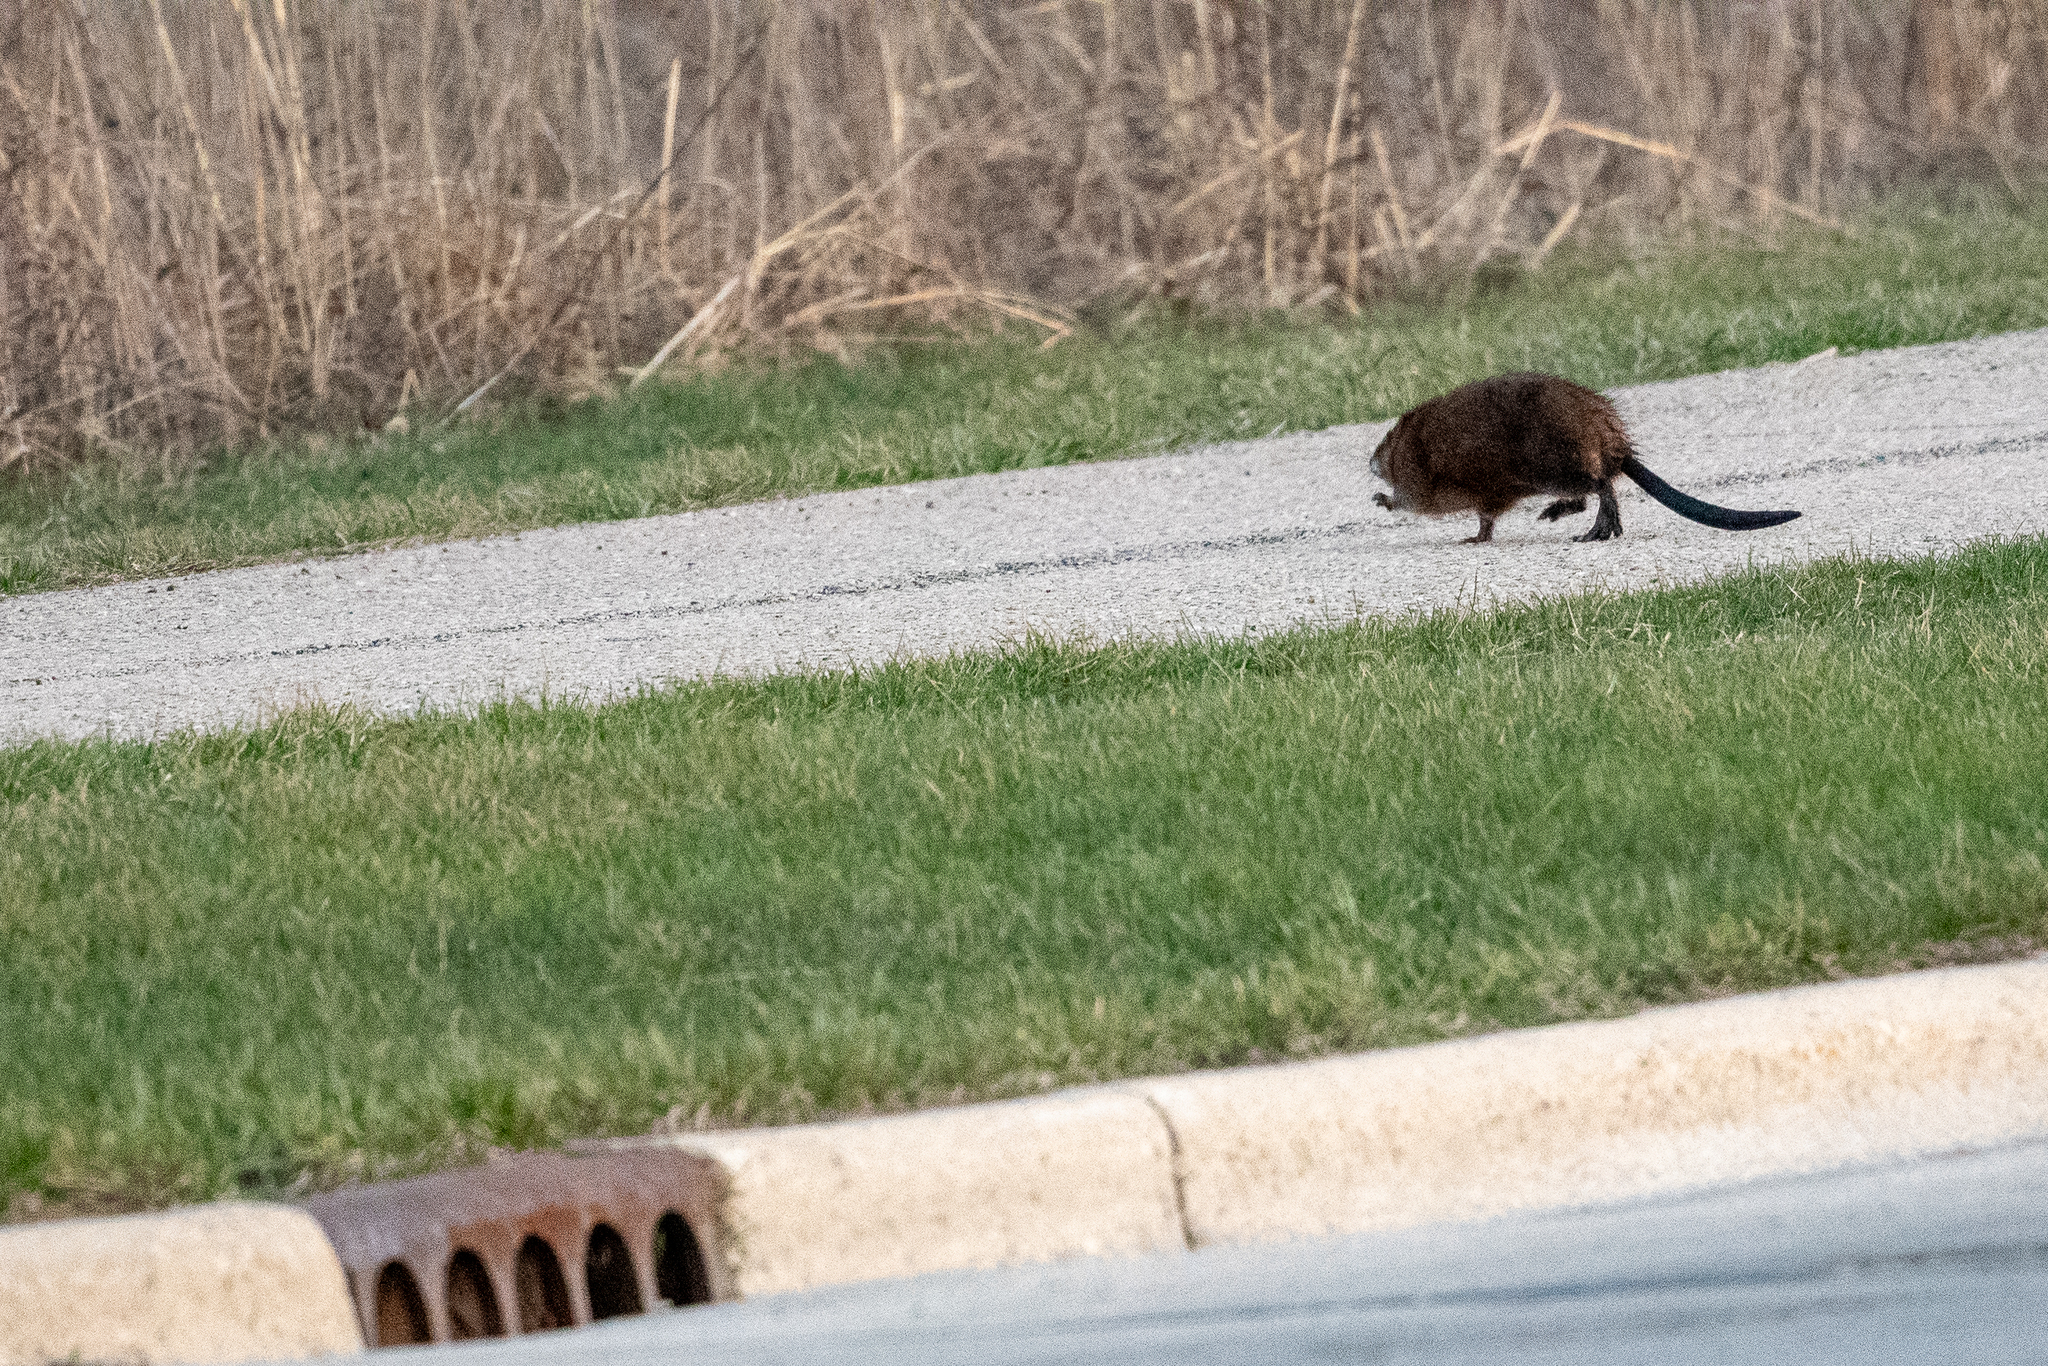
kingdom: Animalia
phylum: Chordata
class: Mammalia
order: Rodentia
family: Cricetidae
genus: Ondatra
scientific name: Ondatra zibethicus
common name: Muskrat
